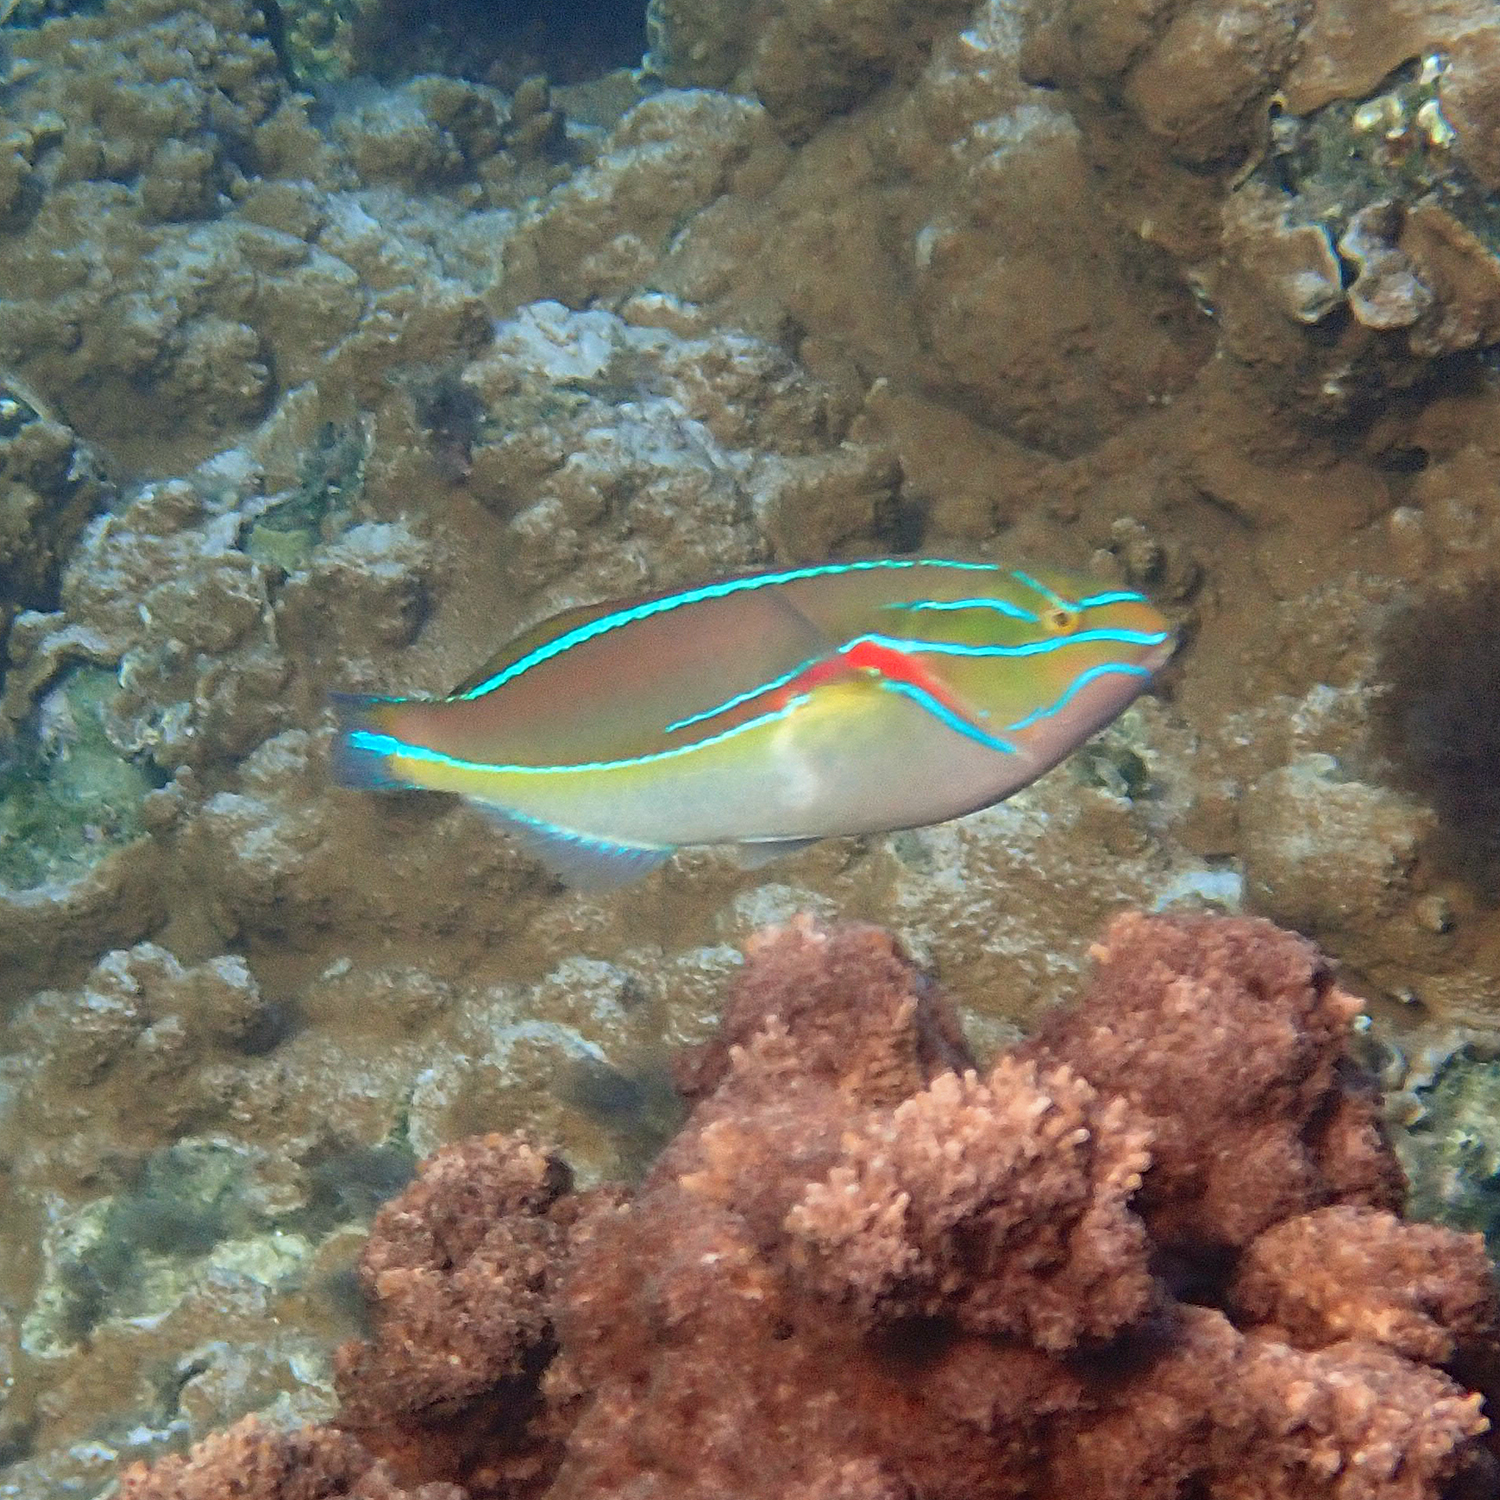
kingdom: Animalia
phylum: Chordata
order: Perciformes
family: Labridae
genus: Stethojulis
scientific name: Stethojulis bandanensis
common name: Red shoulder wrasse
